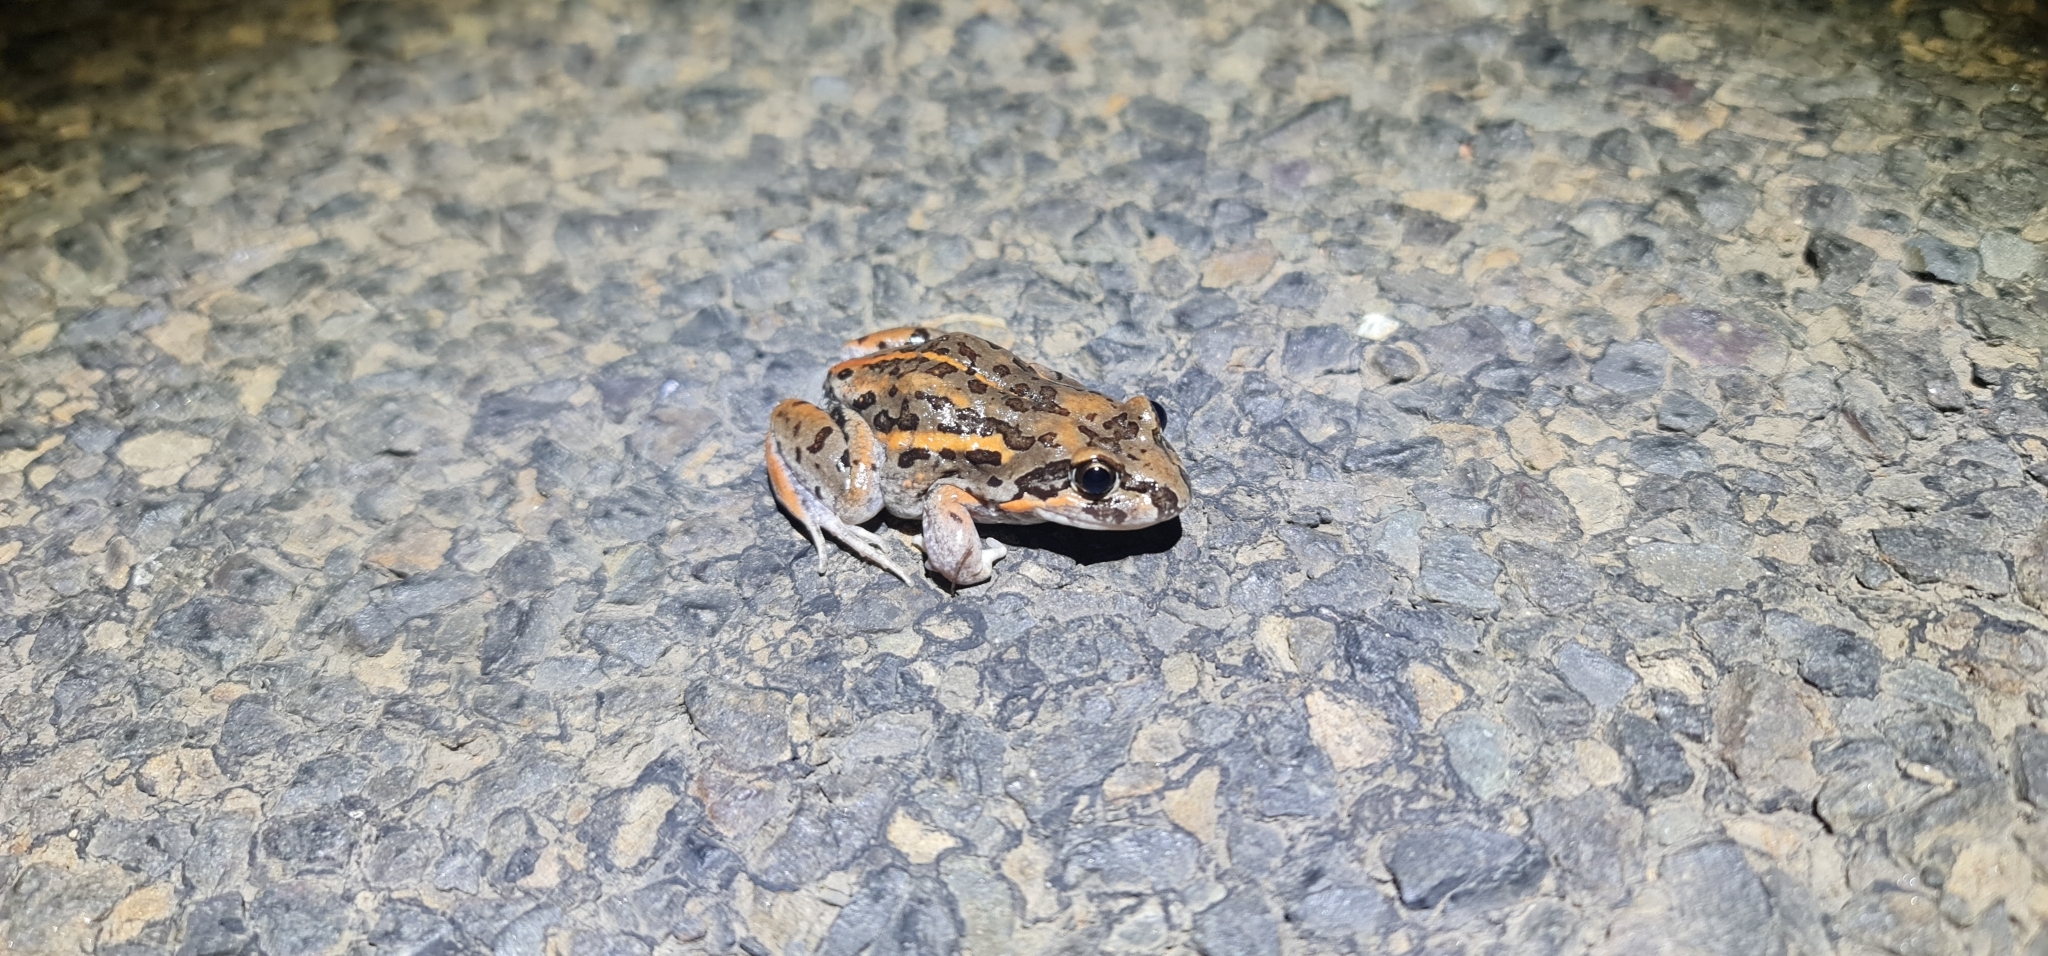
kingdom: Animalia
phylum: Chordata
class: Amphibia
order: Anura
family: Limnodynastidae
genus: Limnodynastes
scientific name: Limnodynastes salmini
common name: Salmon-striped frog
